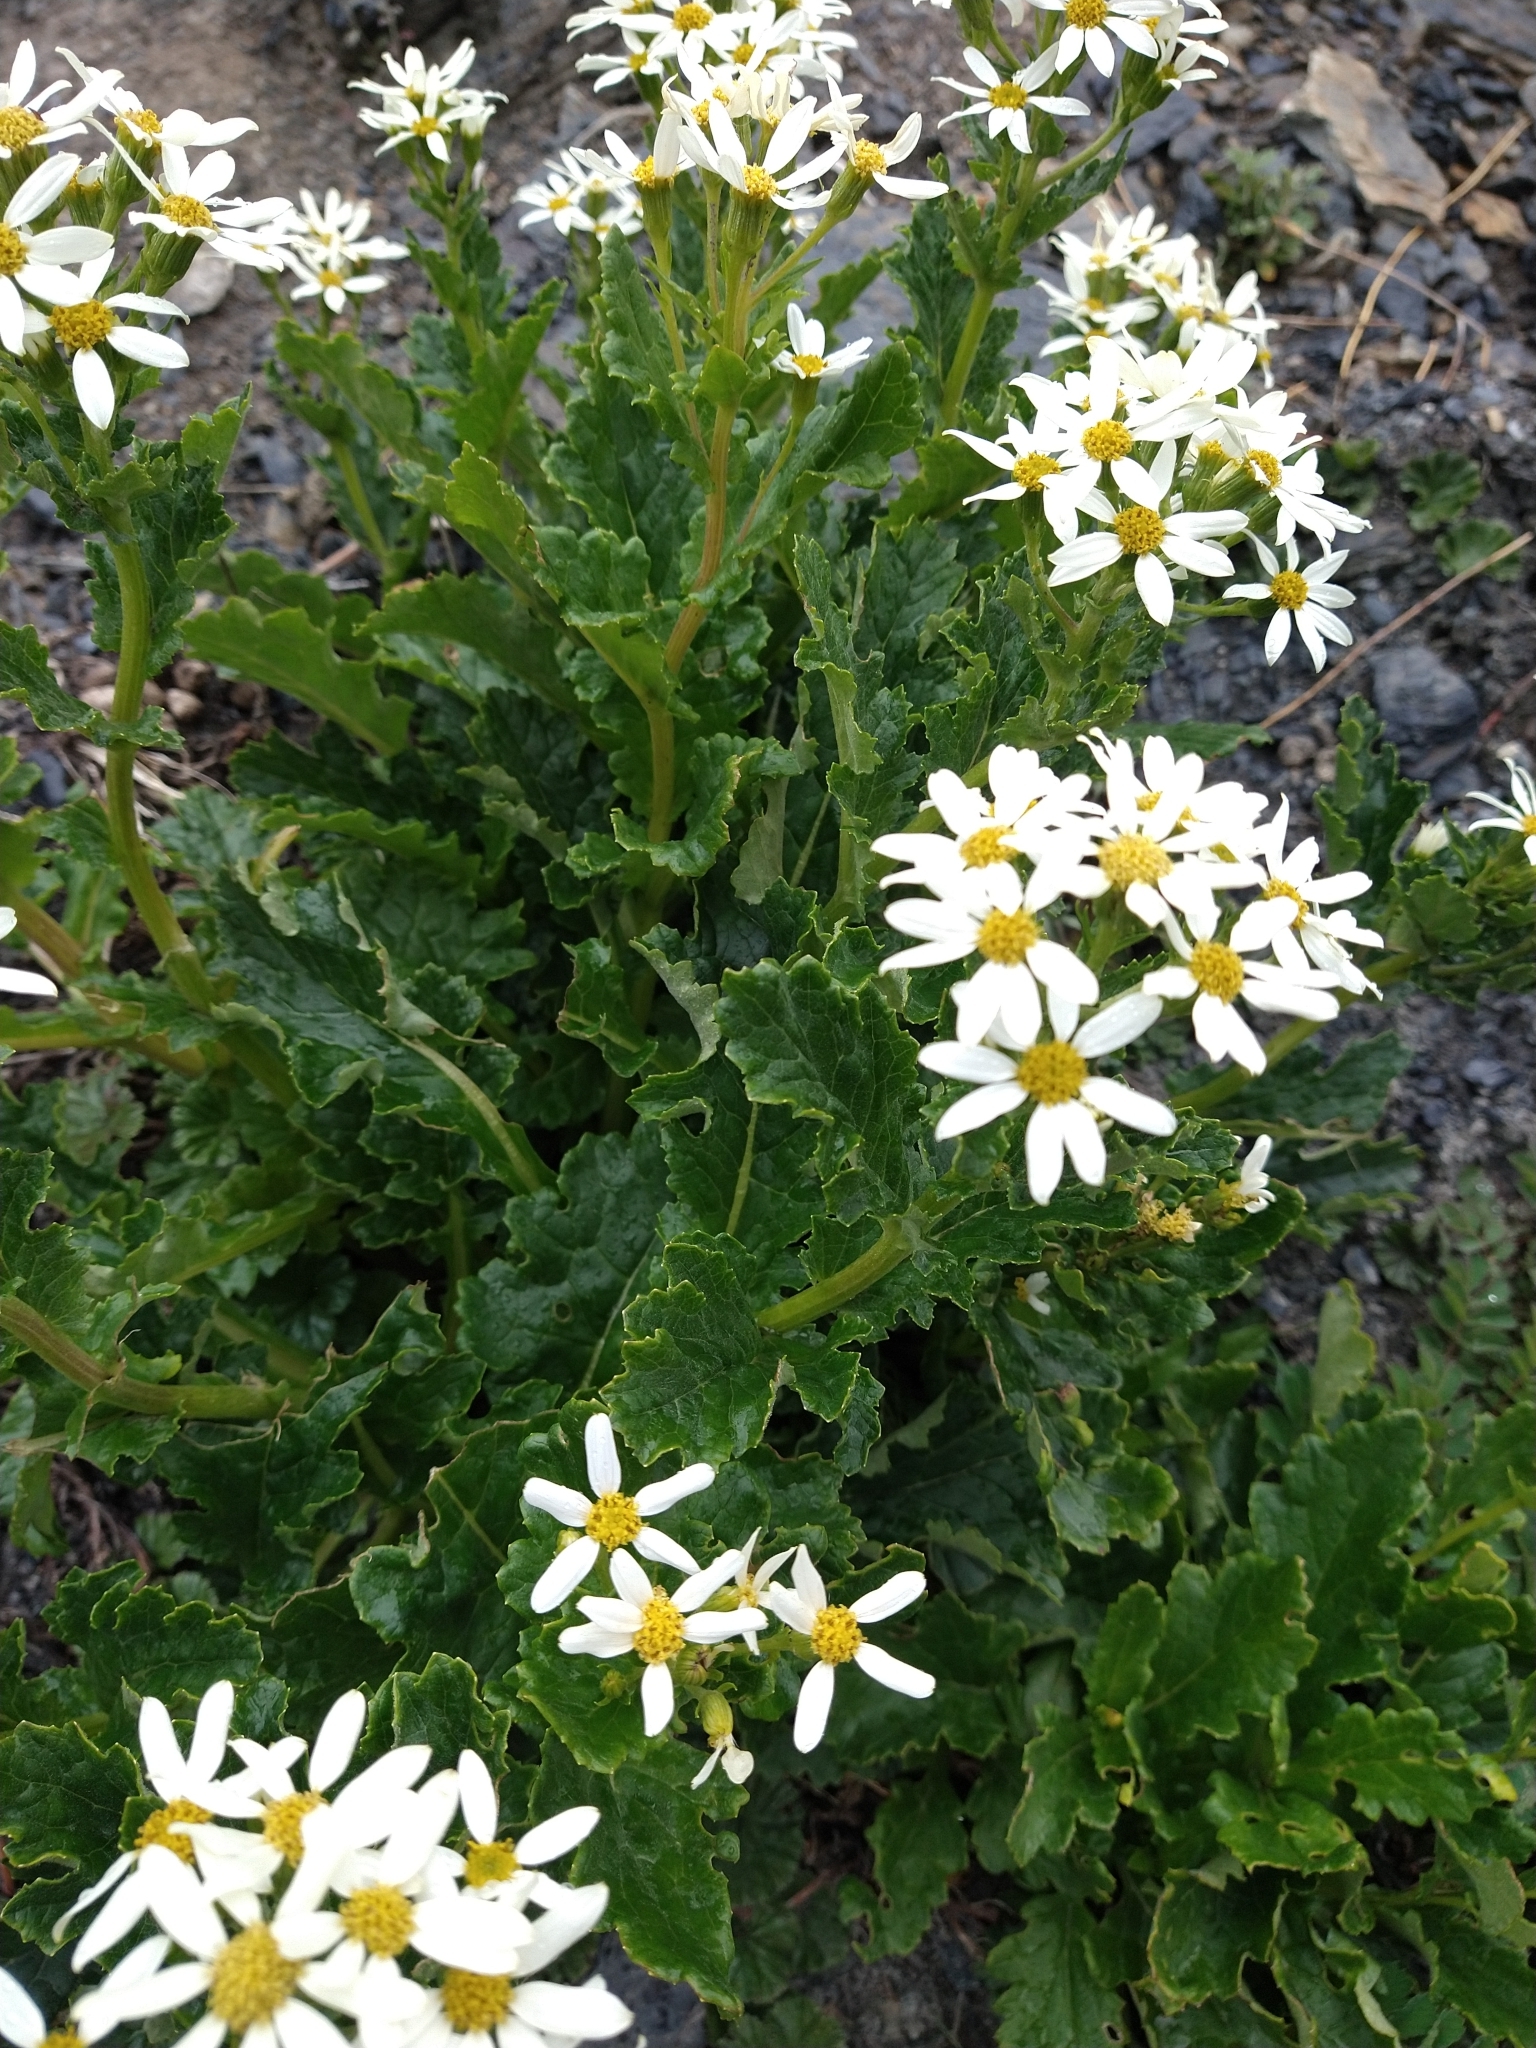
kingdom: Plantae
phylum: Tracheophyta
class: Magnoliopsida
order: Asterales
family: Asteraceae
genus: Iocenes
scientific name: Iocenes virens
